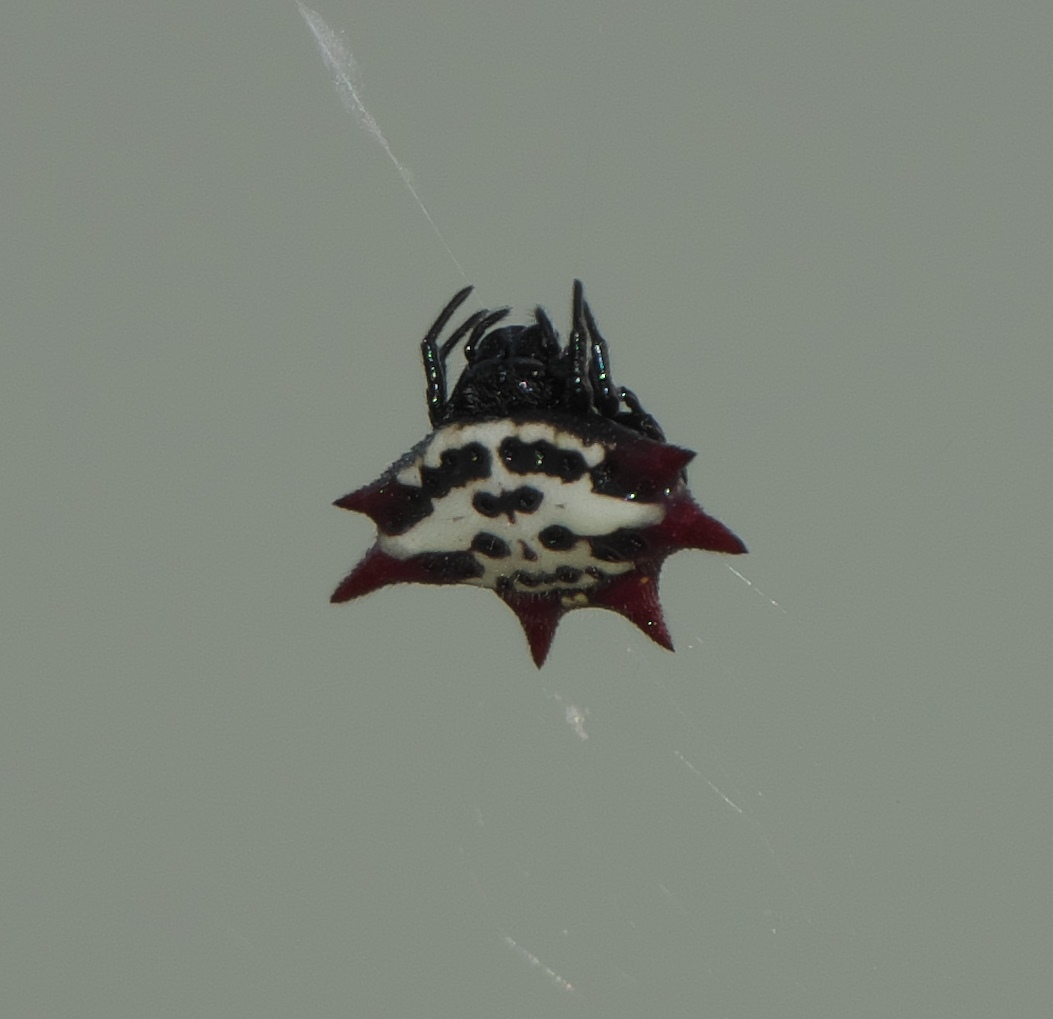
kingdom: Animalia
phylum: Arthropoda
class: Arachnida
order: Araneae
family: Araneidae
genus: Gasteracantha
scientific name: Gasteracantha cancriformis
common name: Orb weavers
